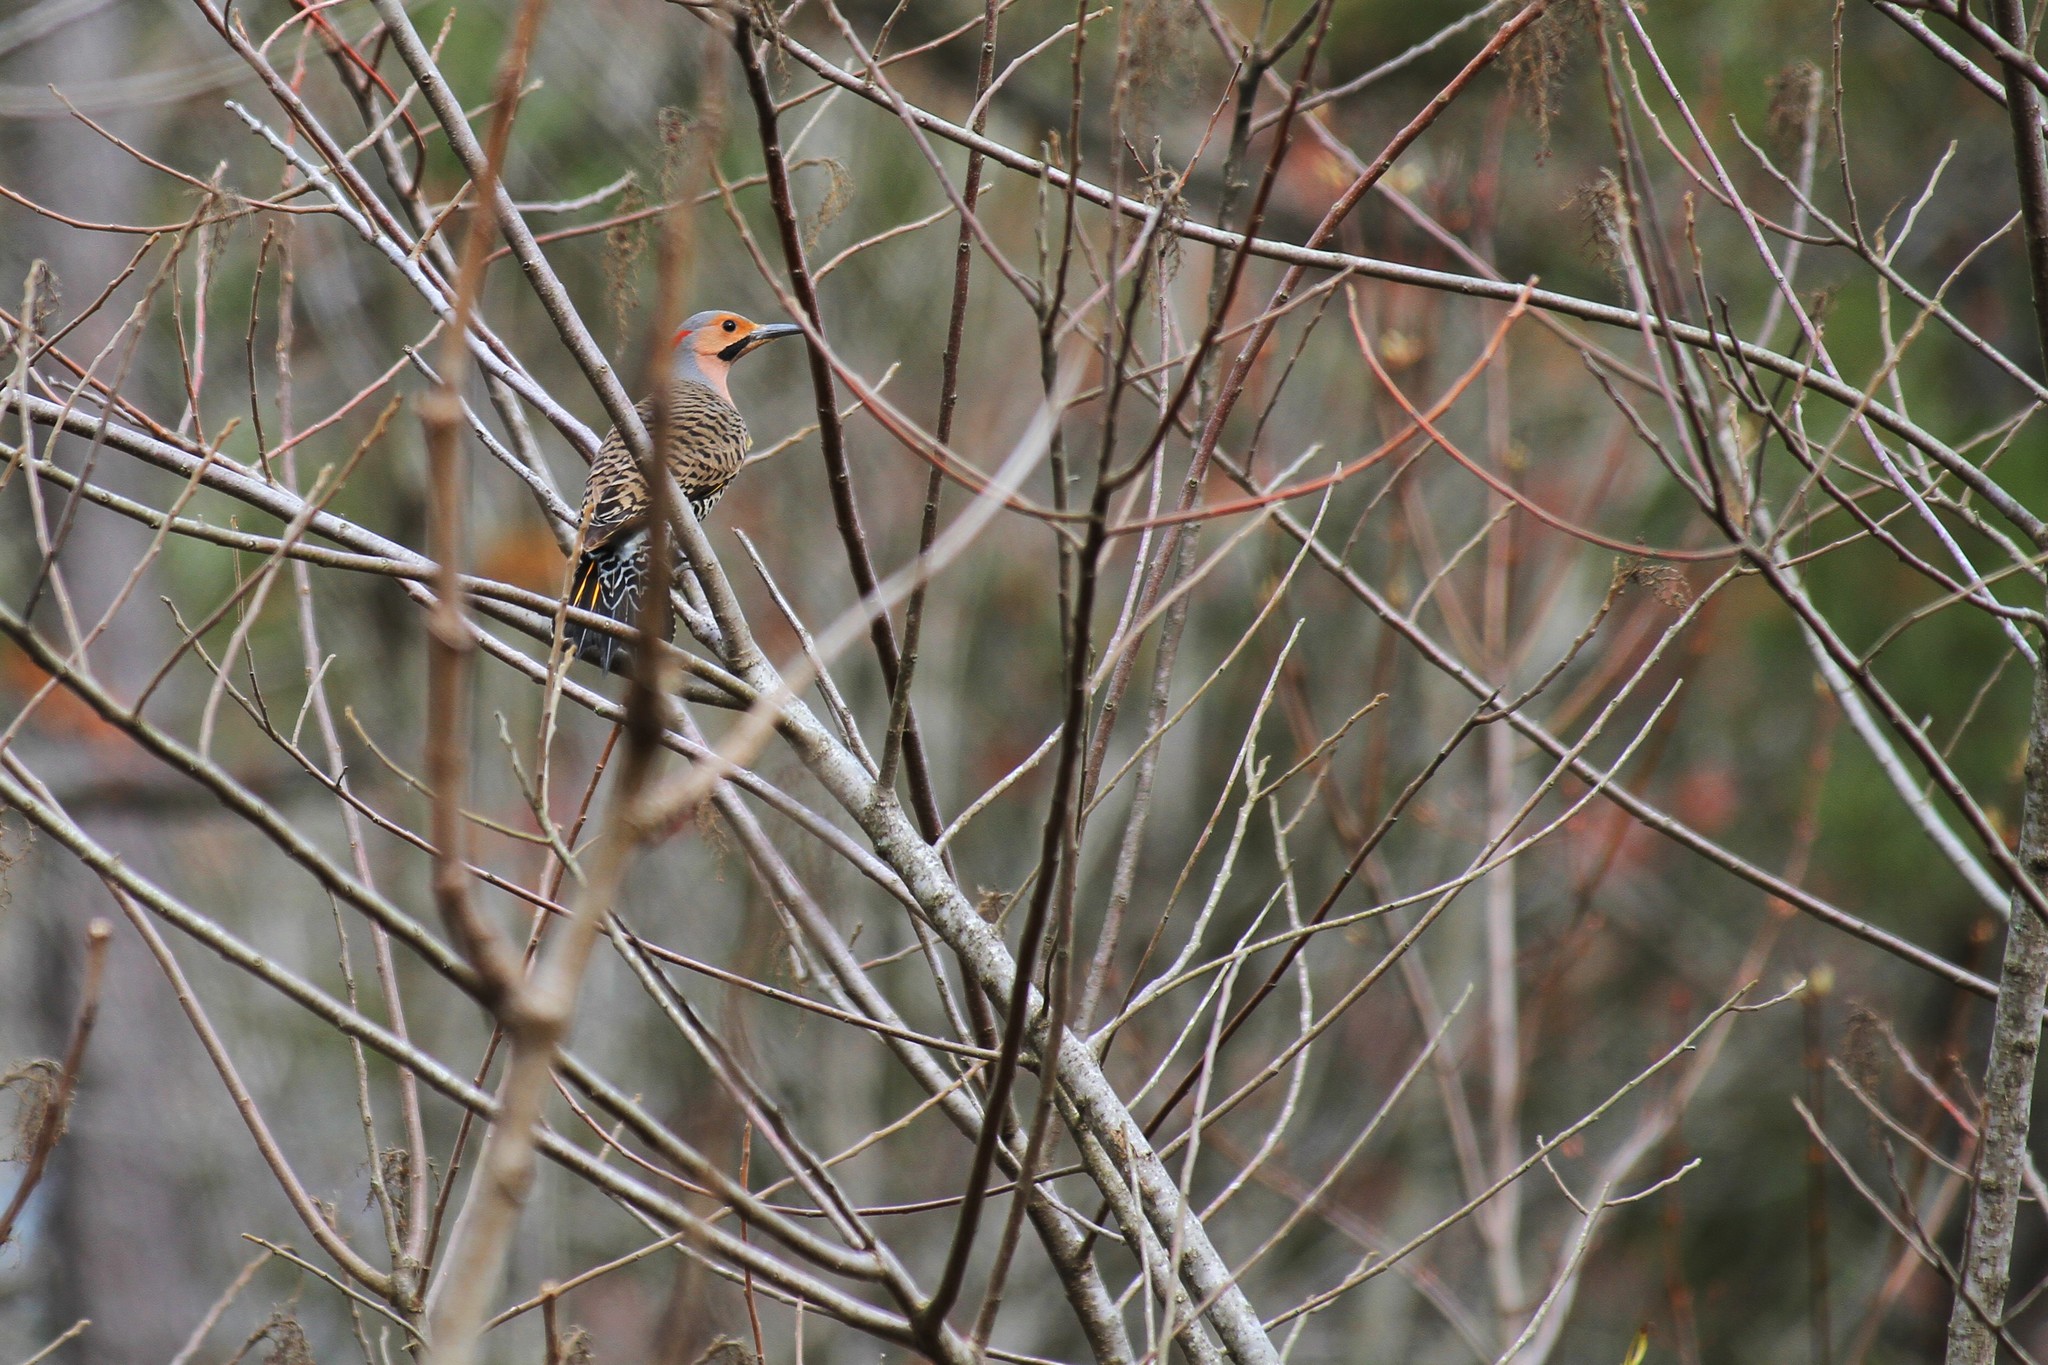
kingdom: Animalia
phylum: Chordata
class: Aves
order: Piciformes
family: Picidae
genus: Colaptes
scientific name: Colaptes auratus
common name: Northern flicker
